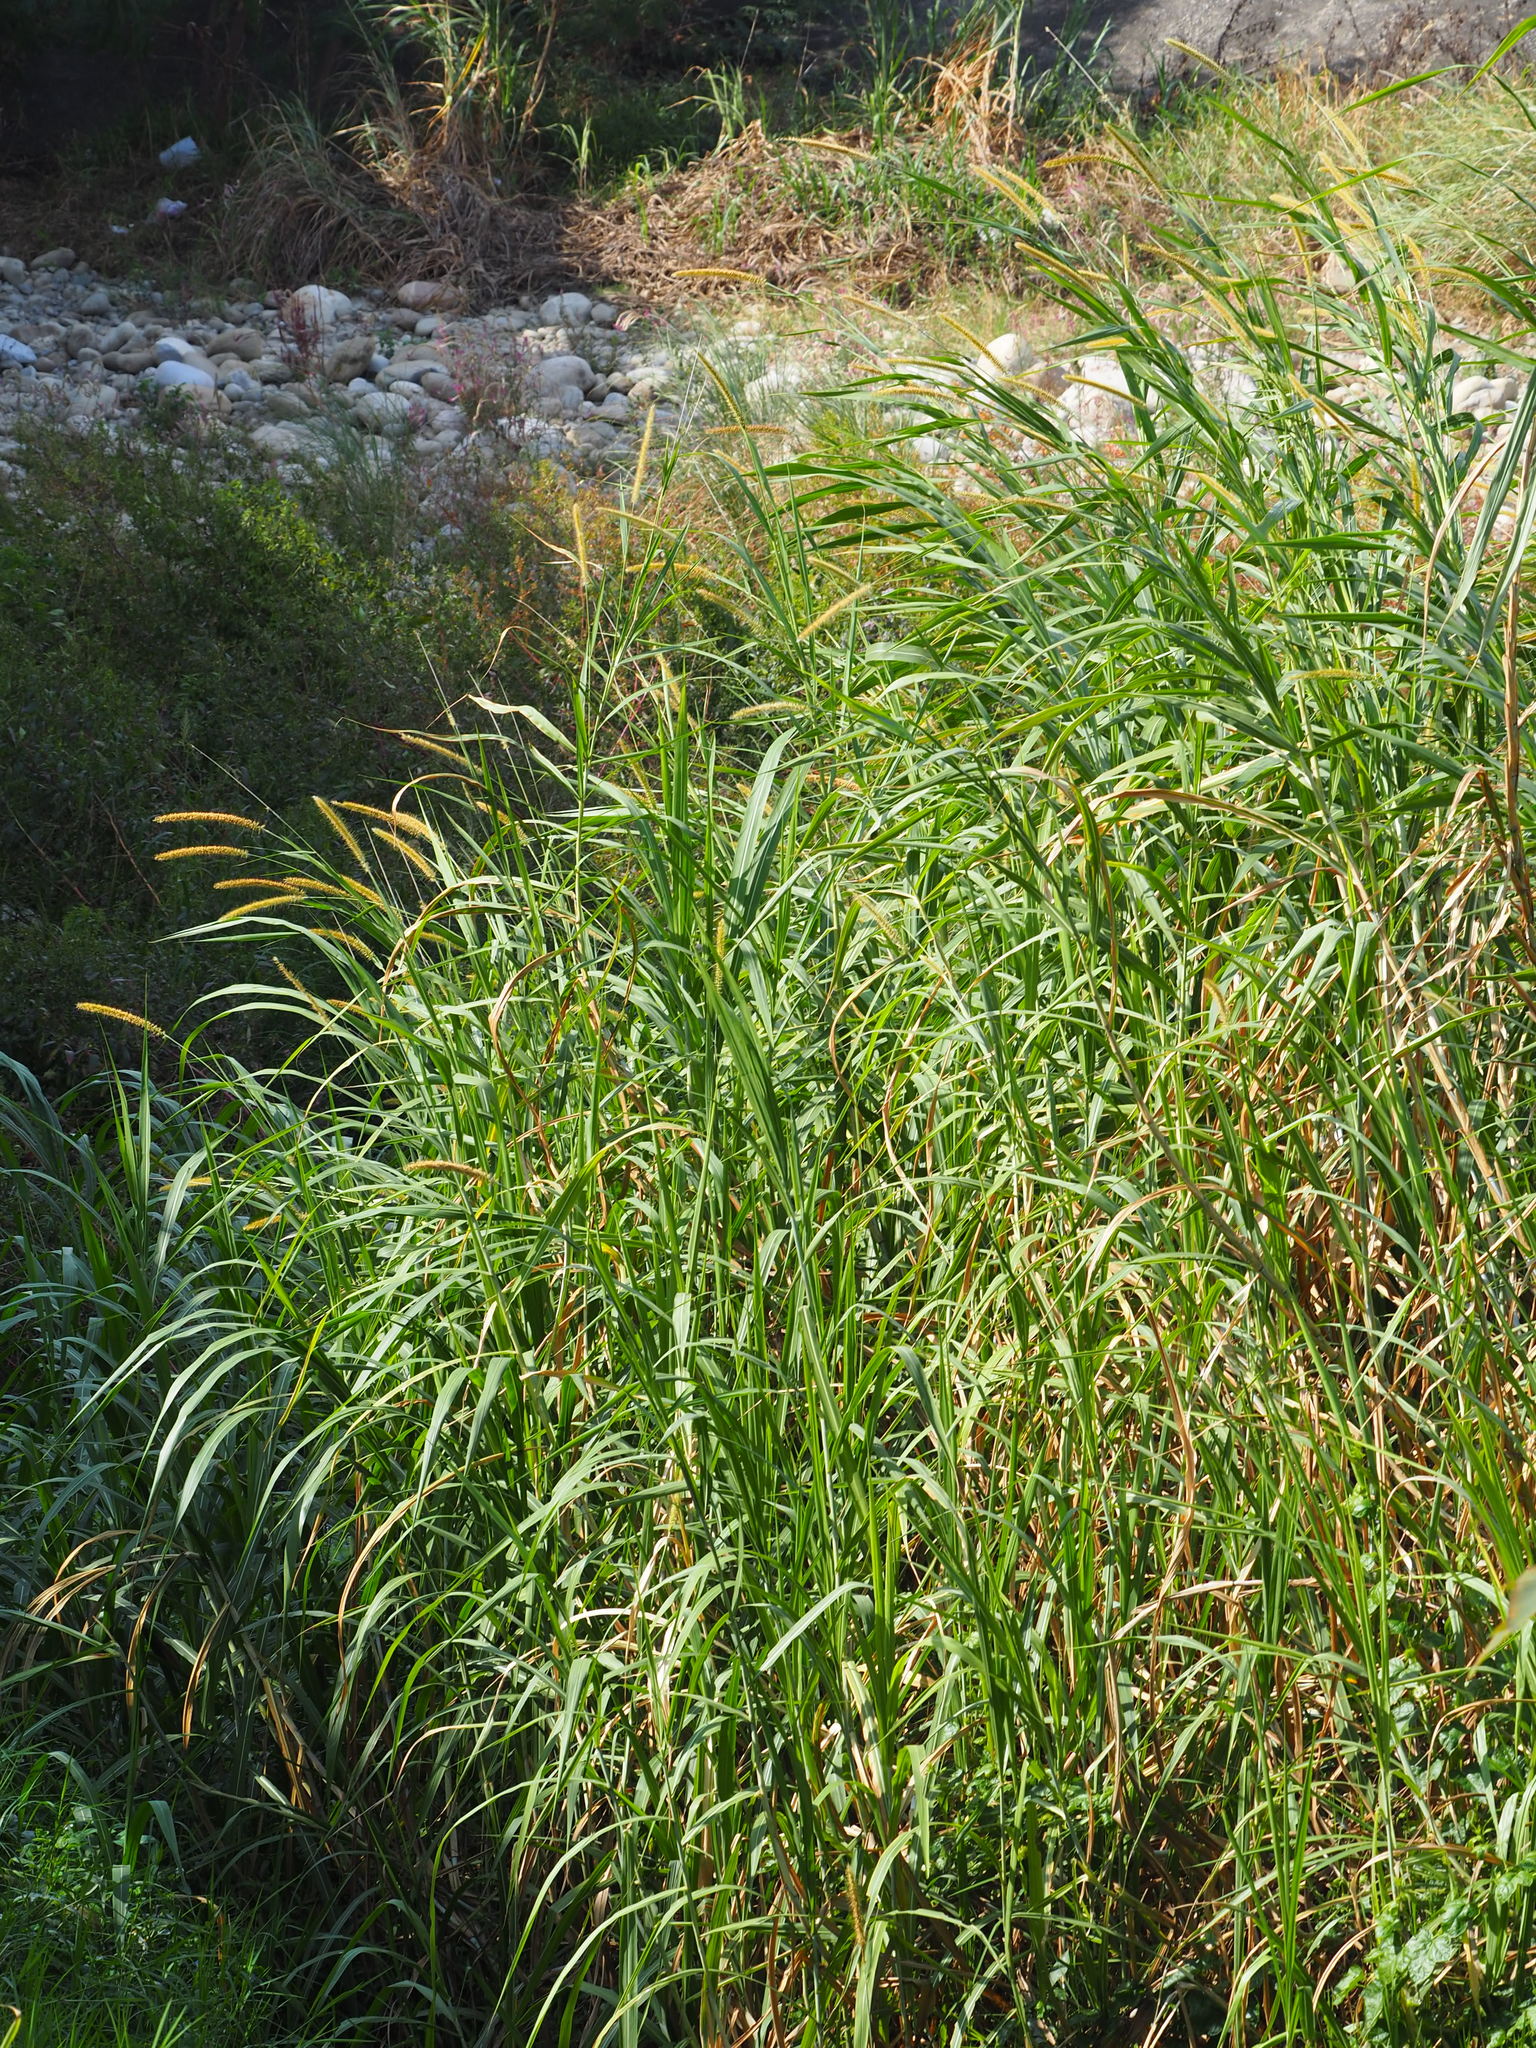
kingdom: Plantae
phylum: Tracheophyta
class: Liliopsida
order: Poales
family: Poaceae
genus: Cenchrus
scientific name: Cenchrus purpureus
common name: Elephant grass
